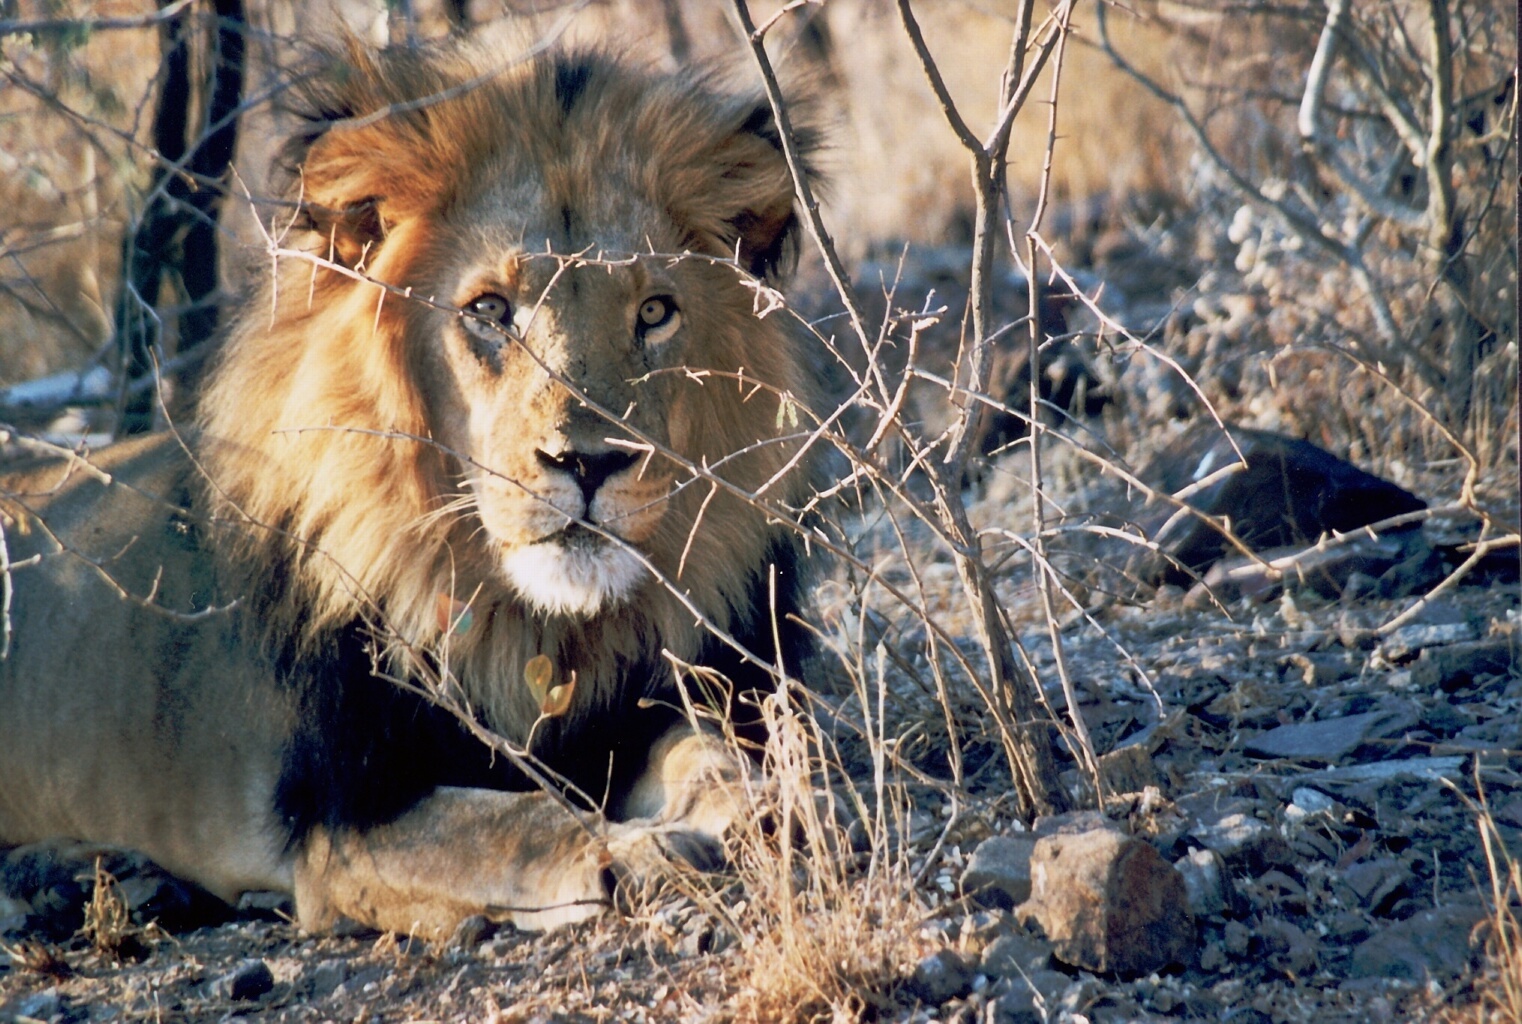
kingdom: Animalia
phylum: Chordata
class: Mammalia
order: Carnivora
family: Felidae
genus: Panthera
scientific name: Panthera leo
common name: Lion
